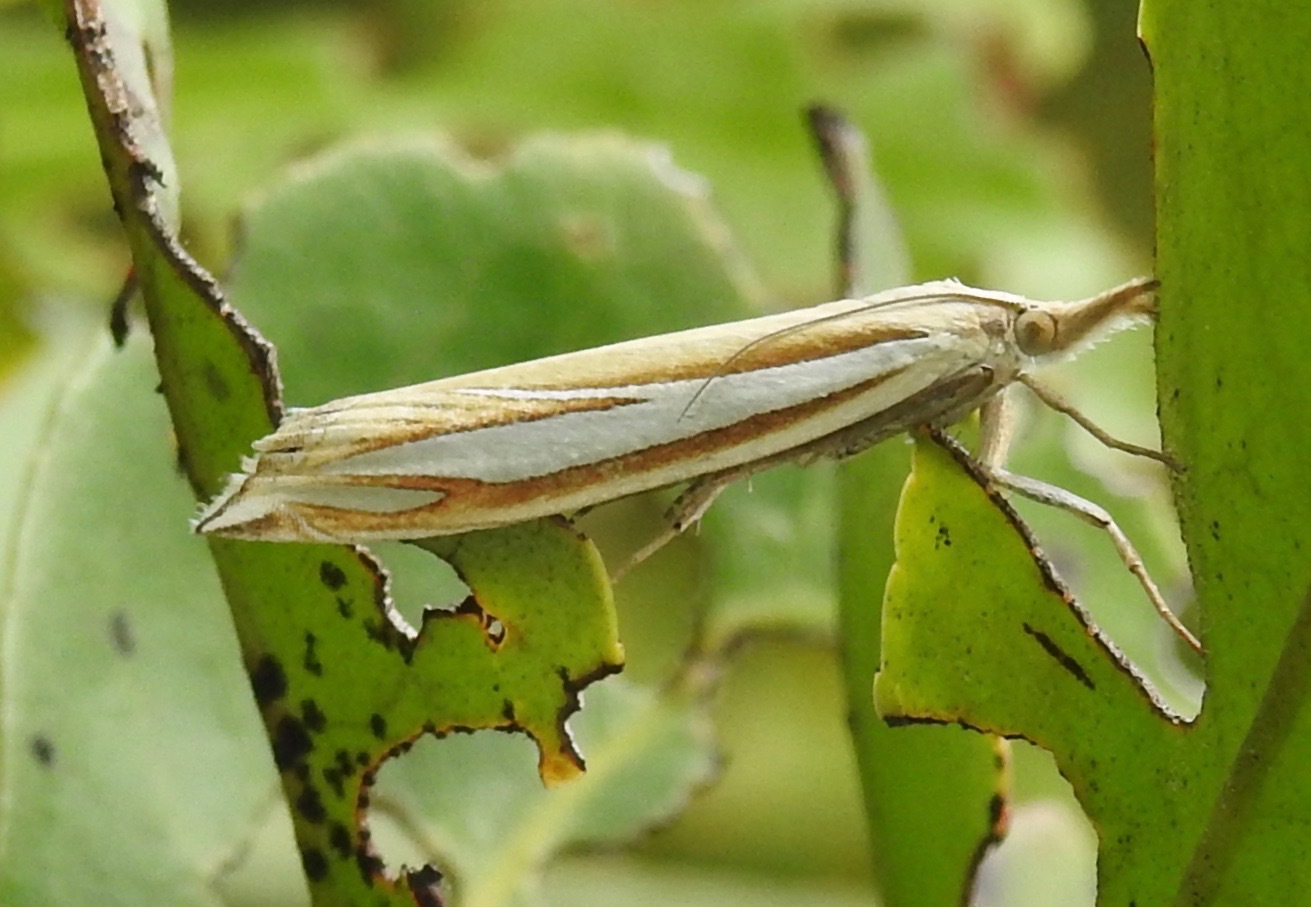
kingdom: Animalia
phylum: Arthropoda
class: Insecta
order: Lepidoptera
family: Crambidae
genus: Crambus
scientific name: Crambus satrapellus
